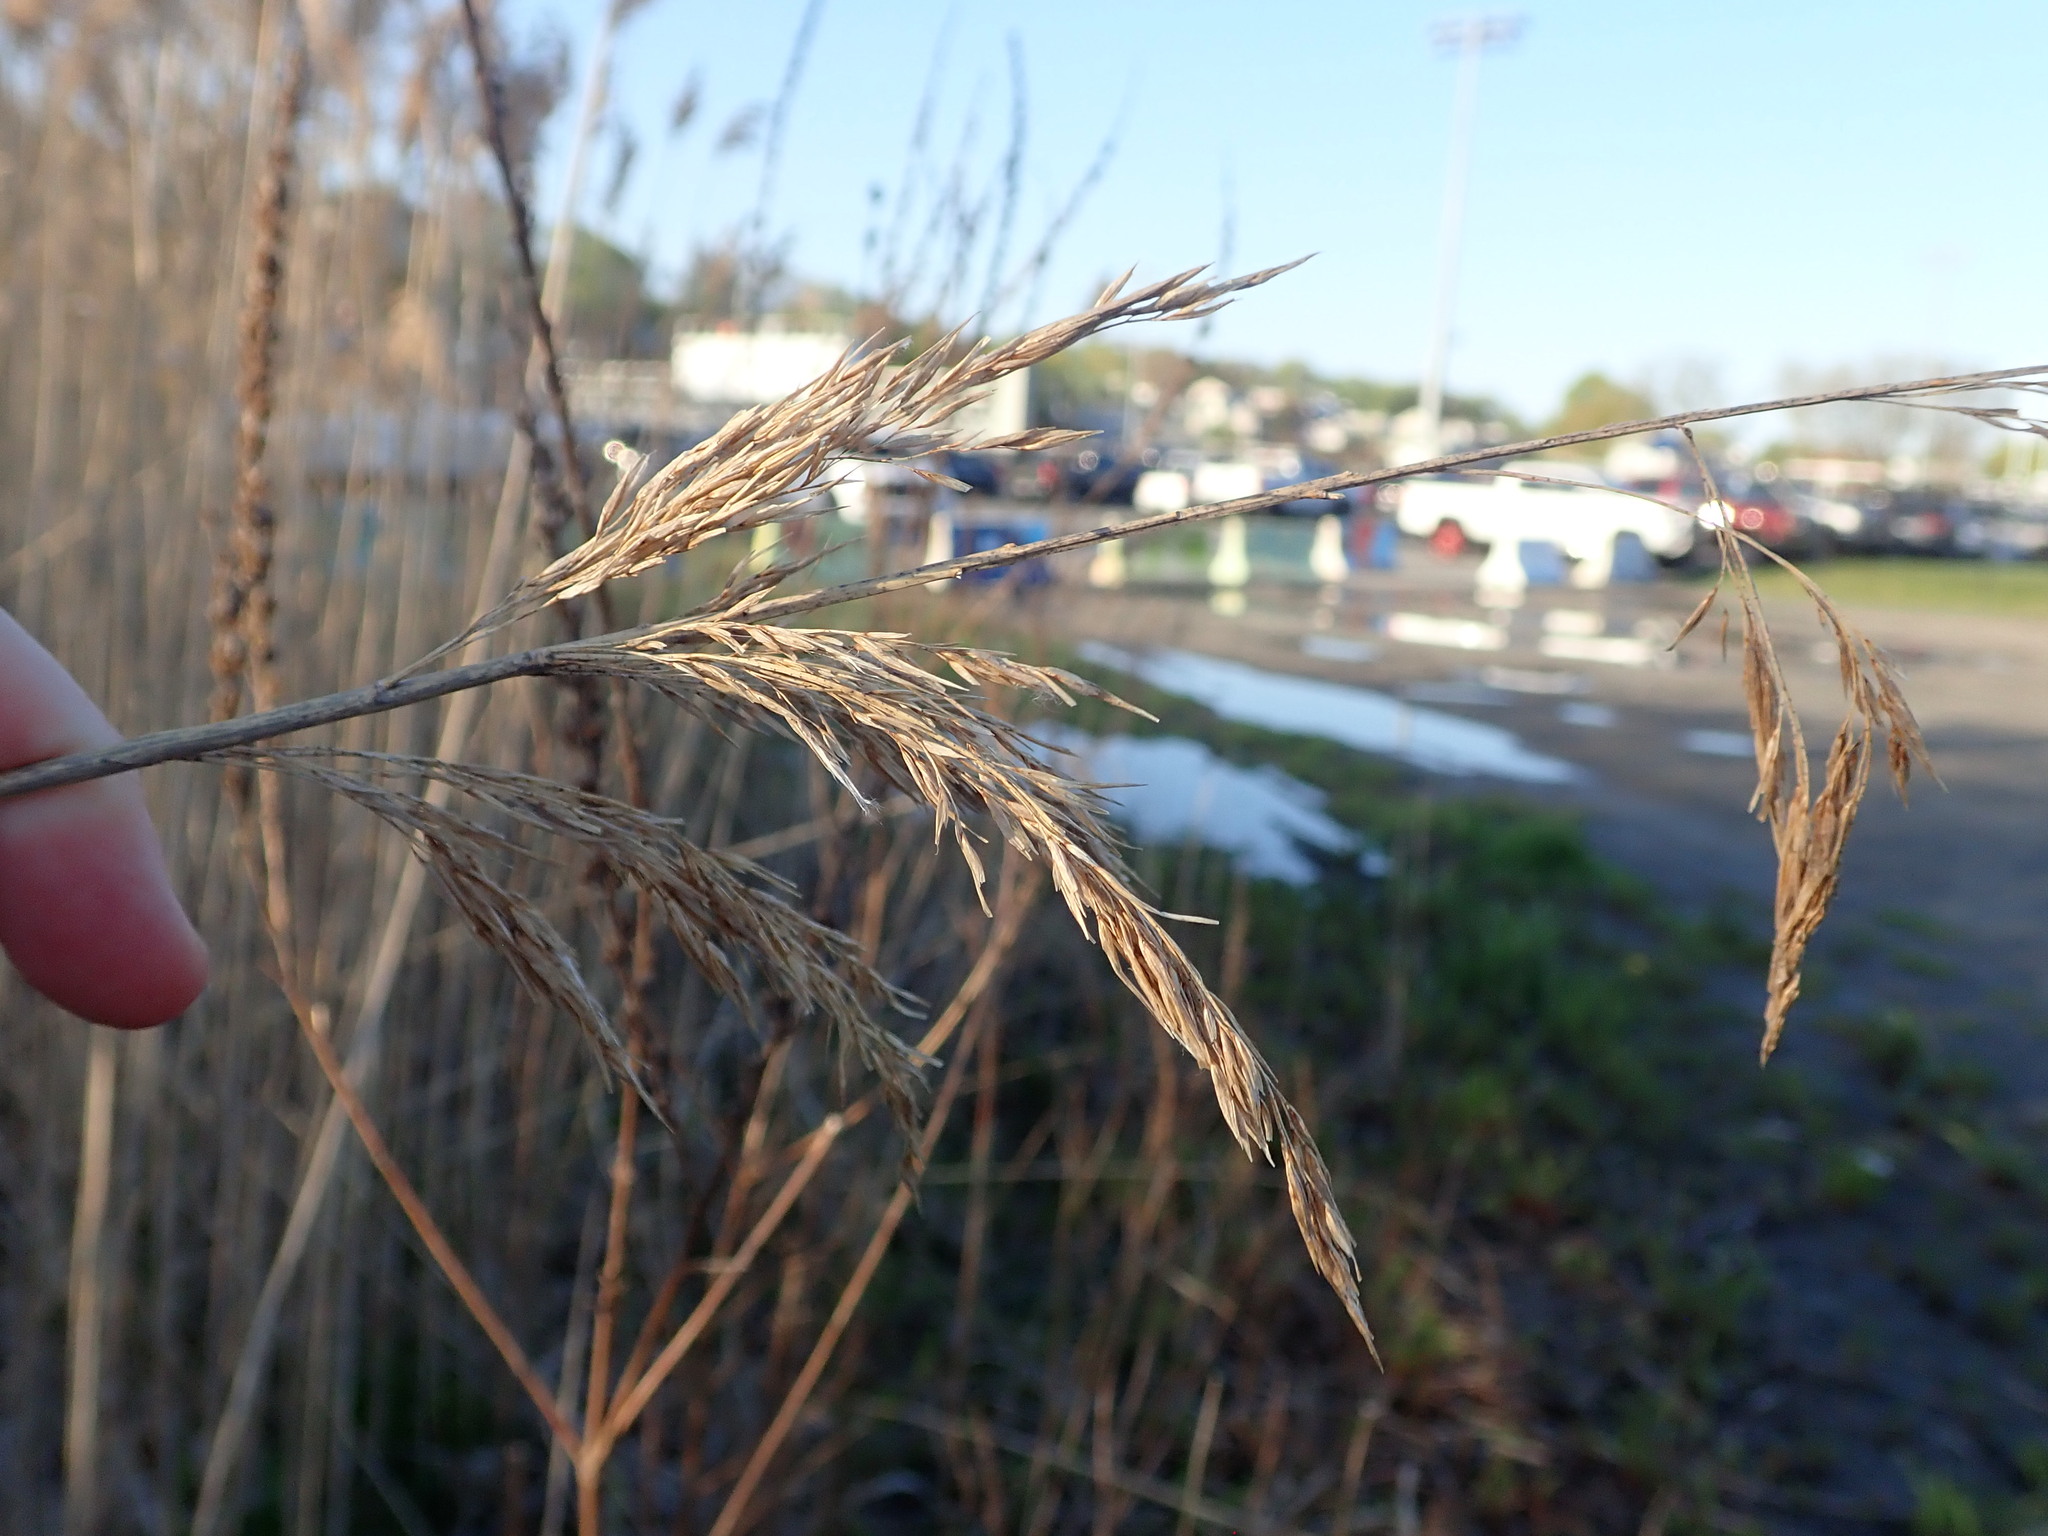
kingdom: Plantae
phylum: Tracheophyta
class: Liliopsida
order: Poales
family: Poaceae
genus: Phragmites
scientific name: Phragmites australis
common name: Common reed
